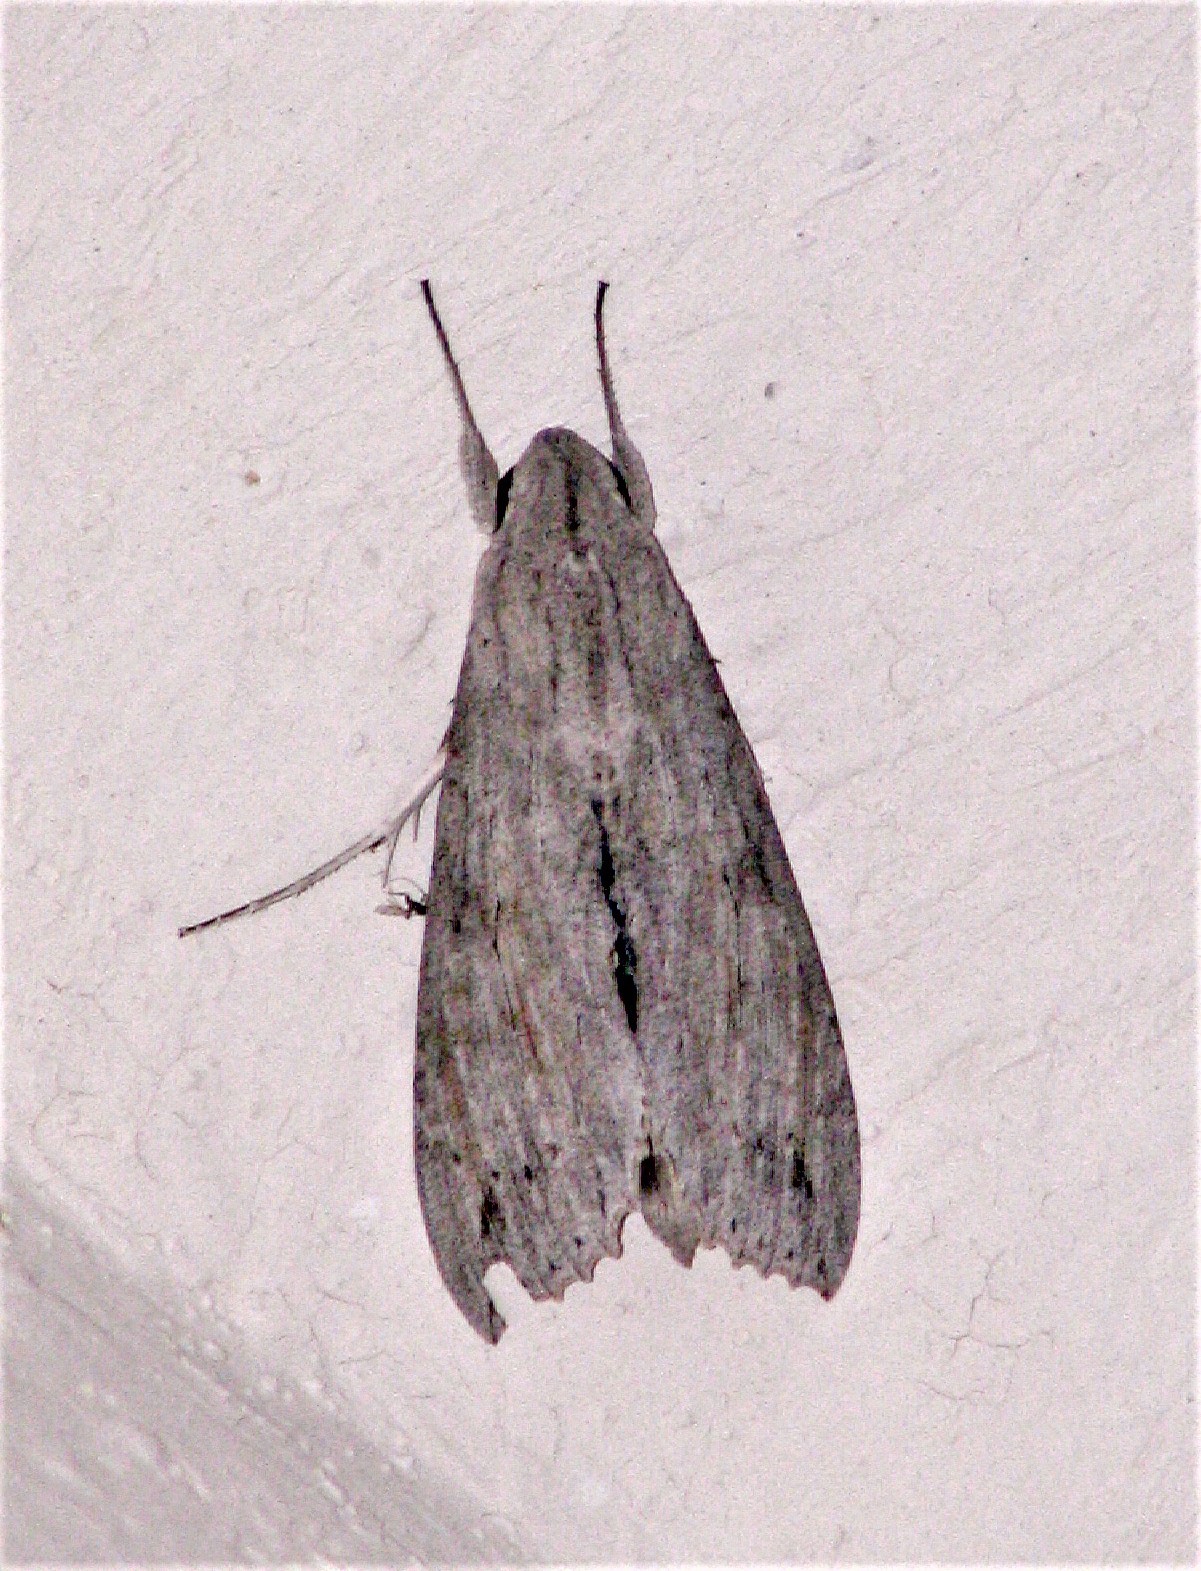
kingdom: Animalia
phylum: Arthropoda
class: Insecta
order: Lepidoptera
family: Sphingidae
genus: Erinnyis
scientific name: Erinnyis ello
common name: Ello sphinx
